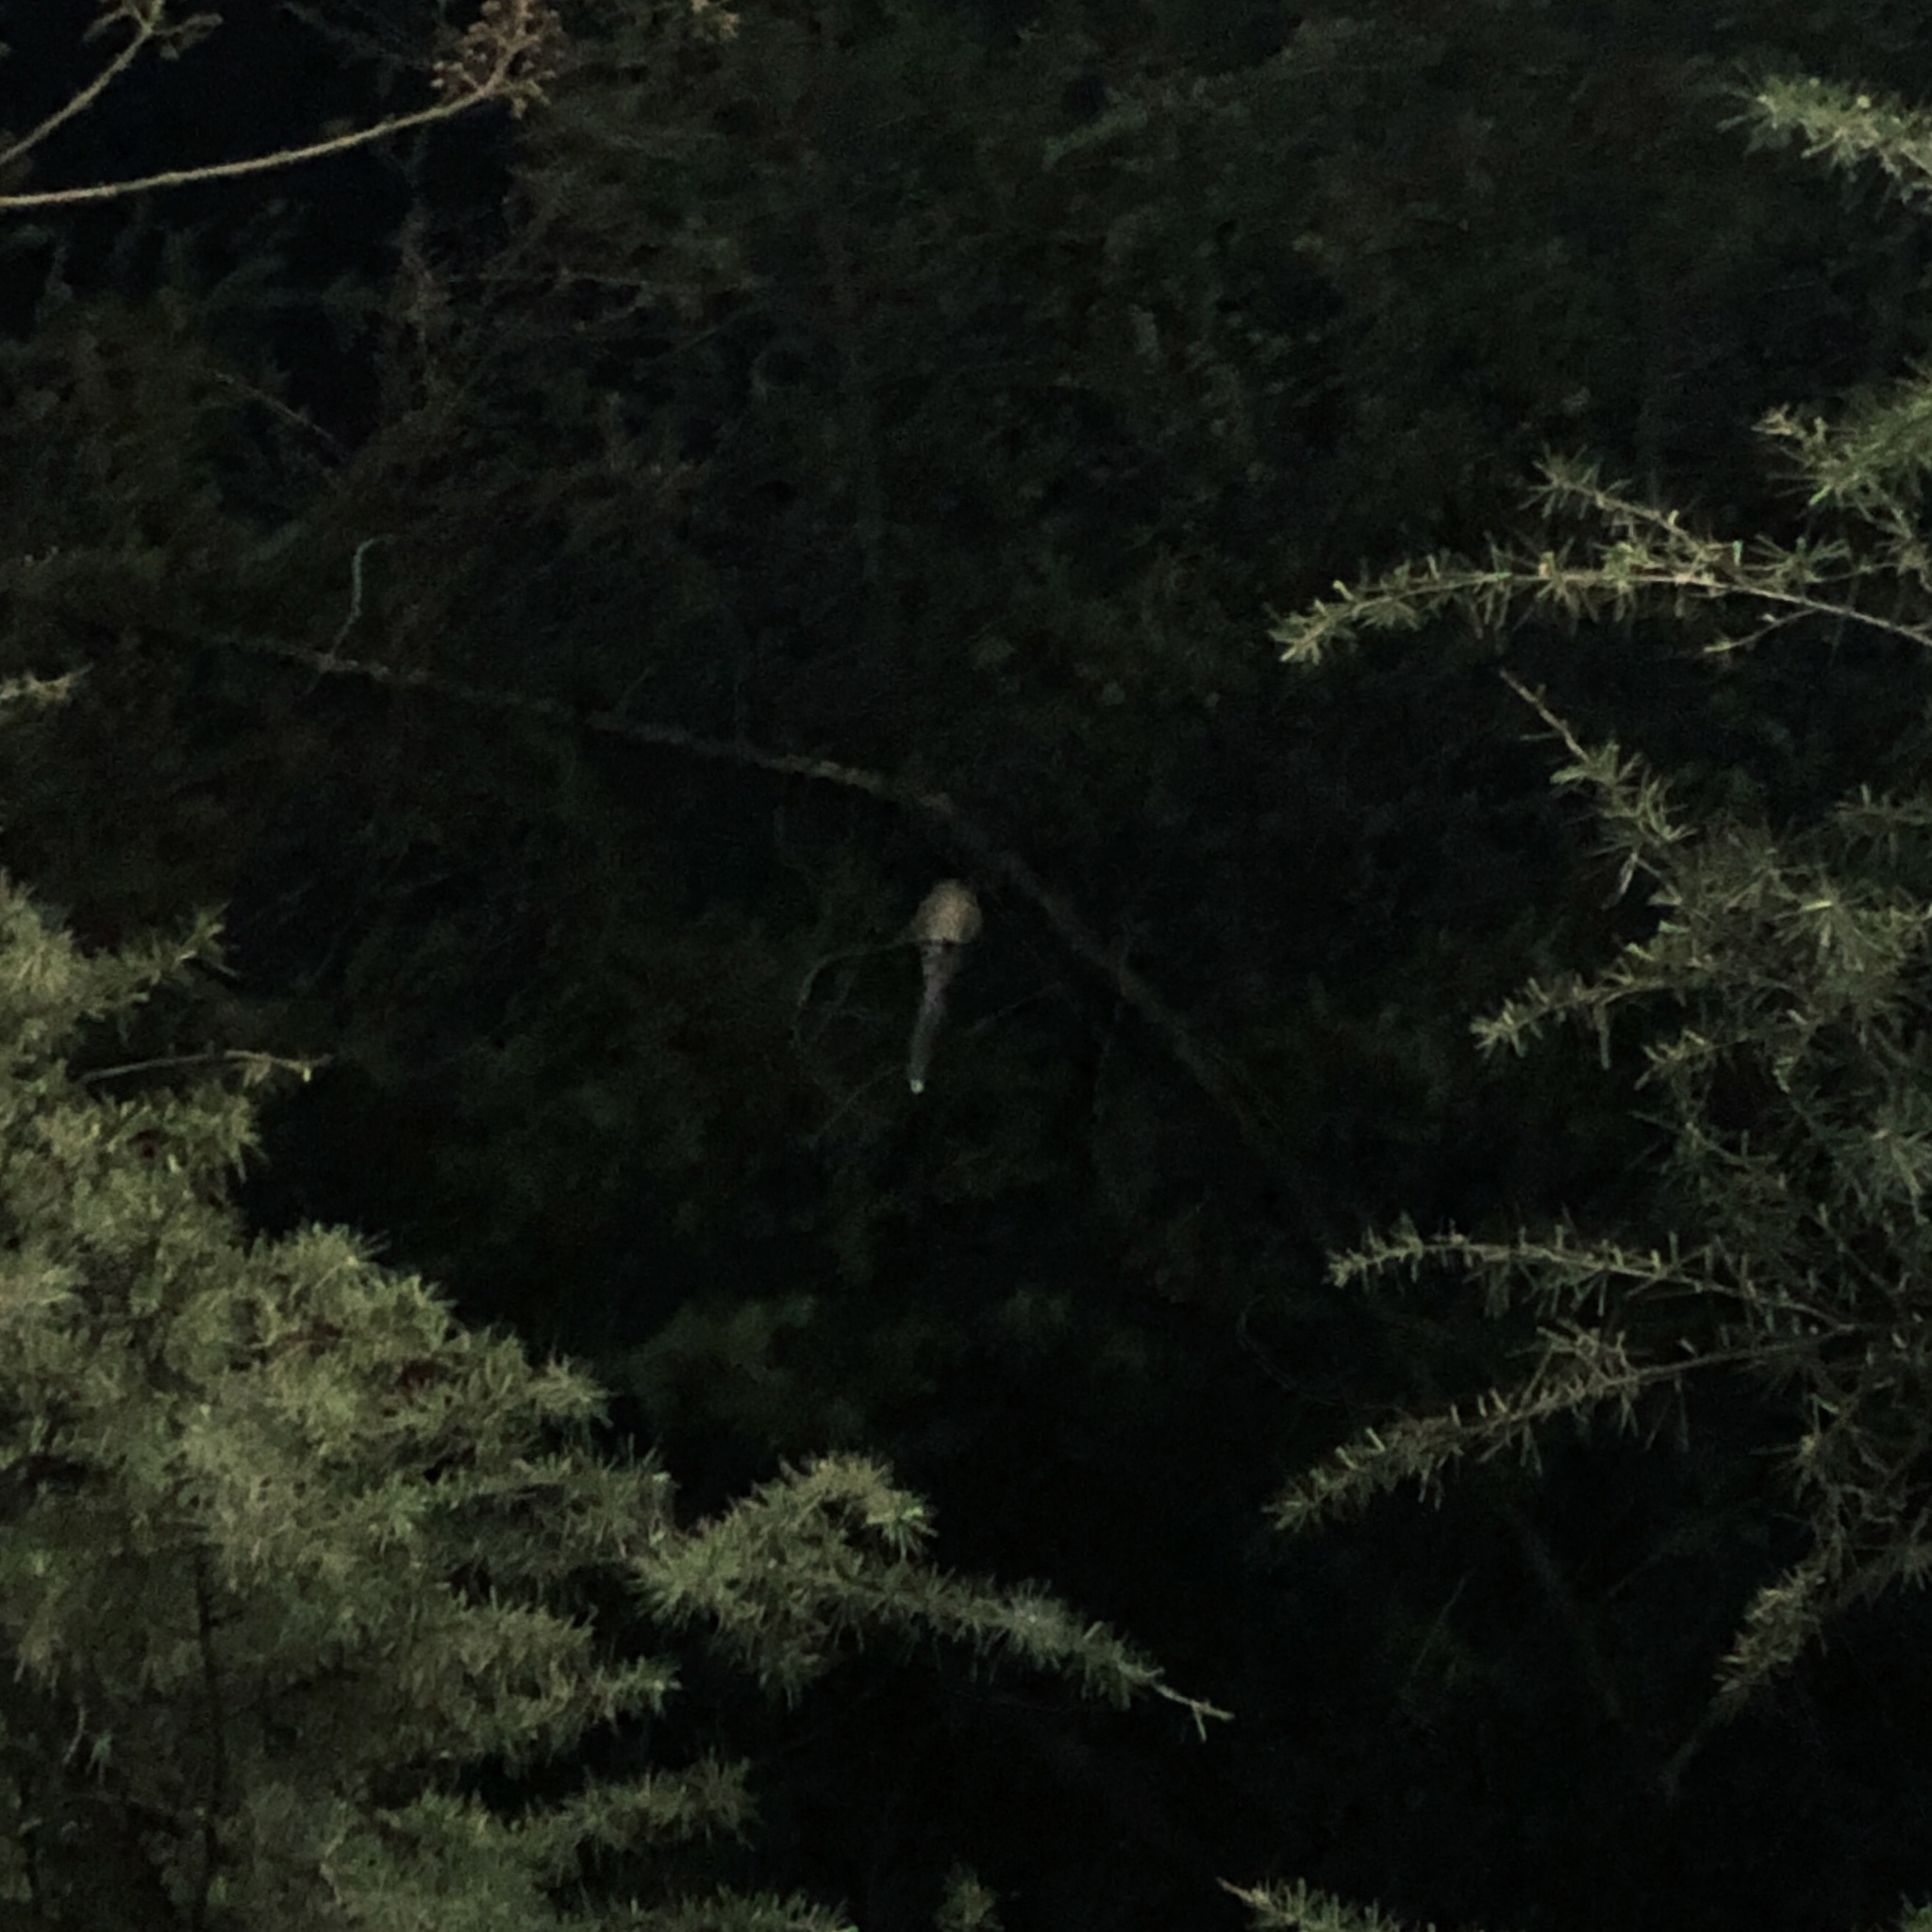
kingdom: Animalia
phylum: Chordata
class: Aves
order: Passeriformes
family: Corvidae
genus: Cyanopica
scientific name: Cyanopica cyanus
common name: Azure-winged magpie
